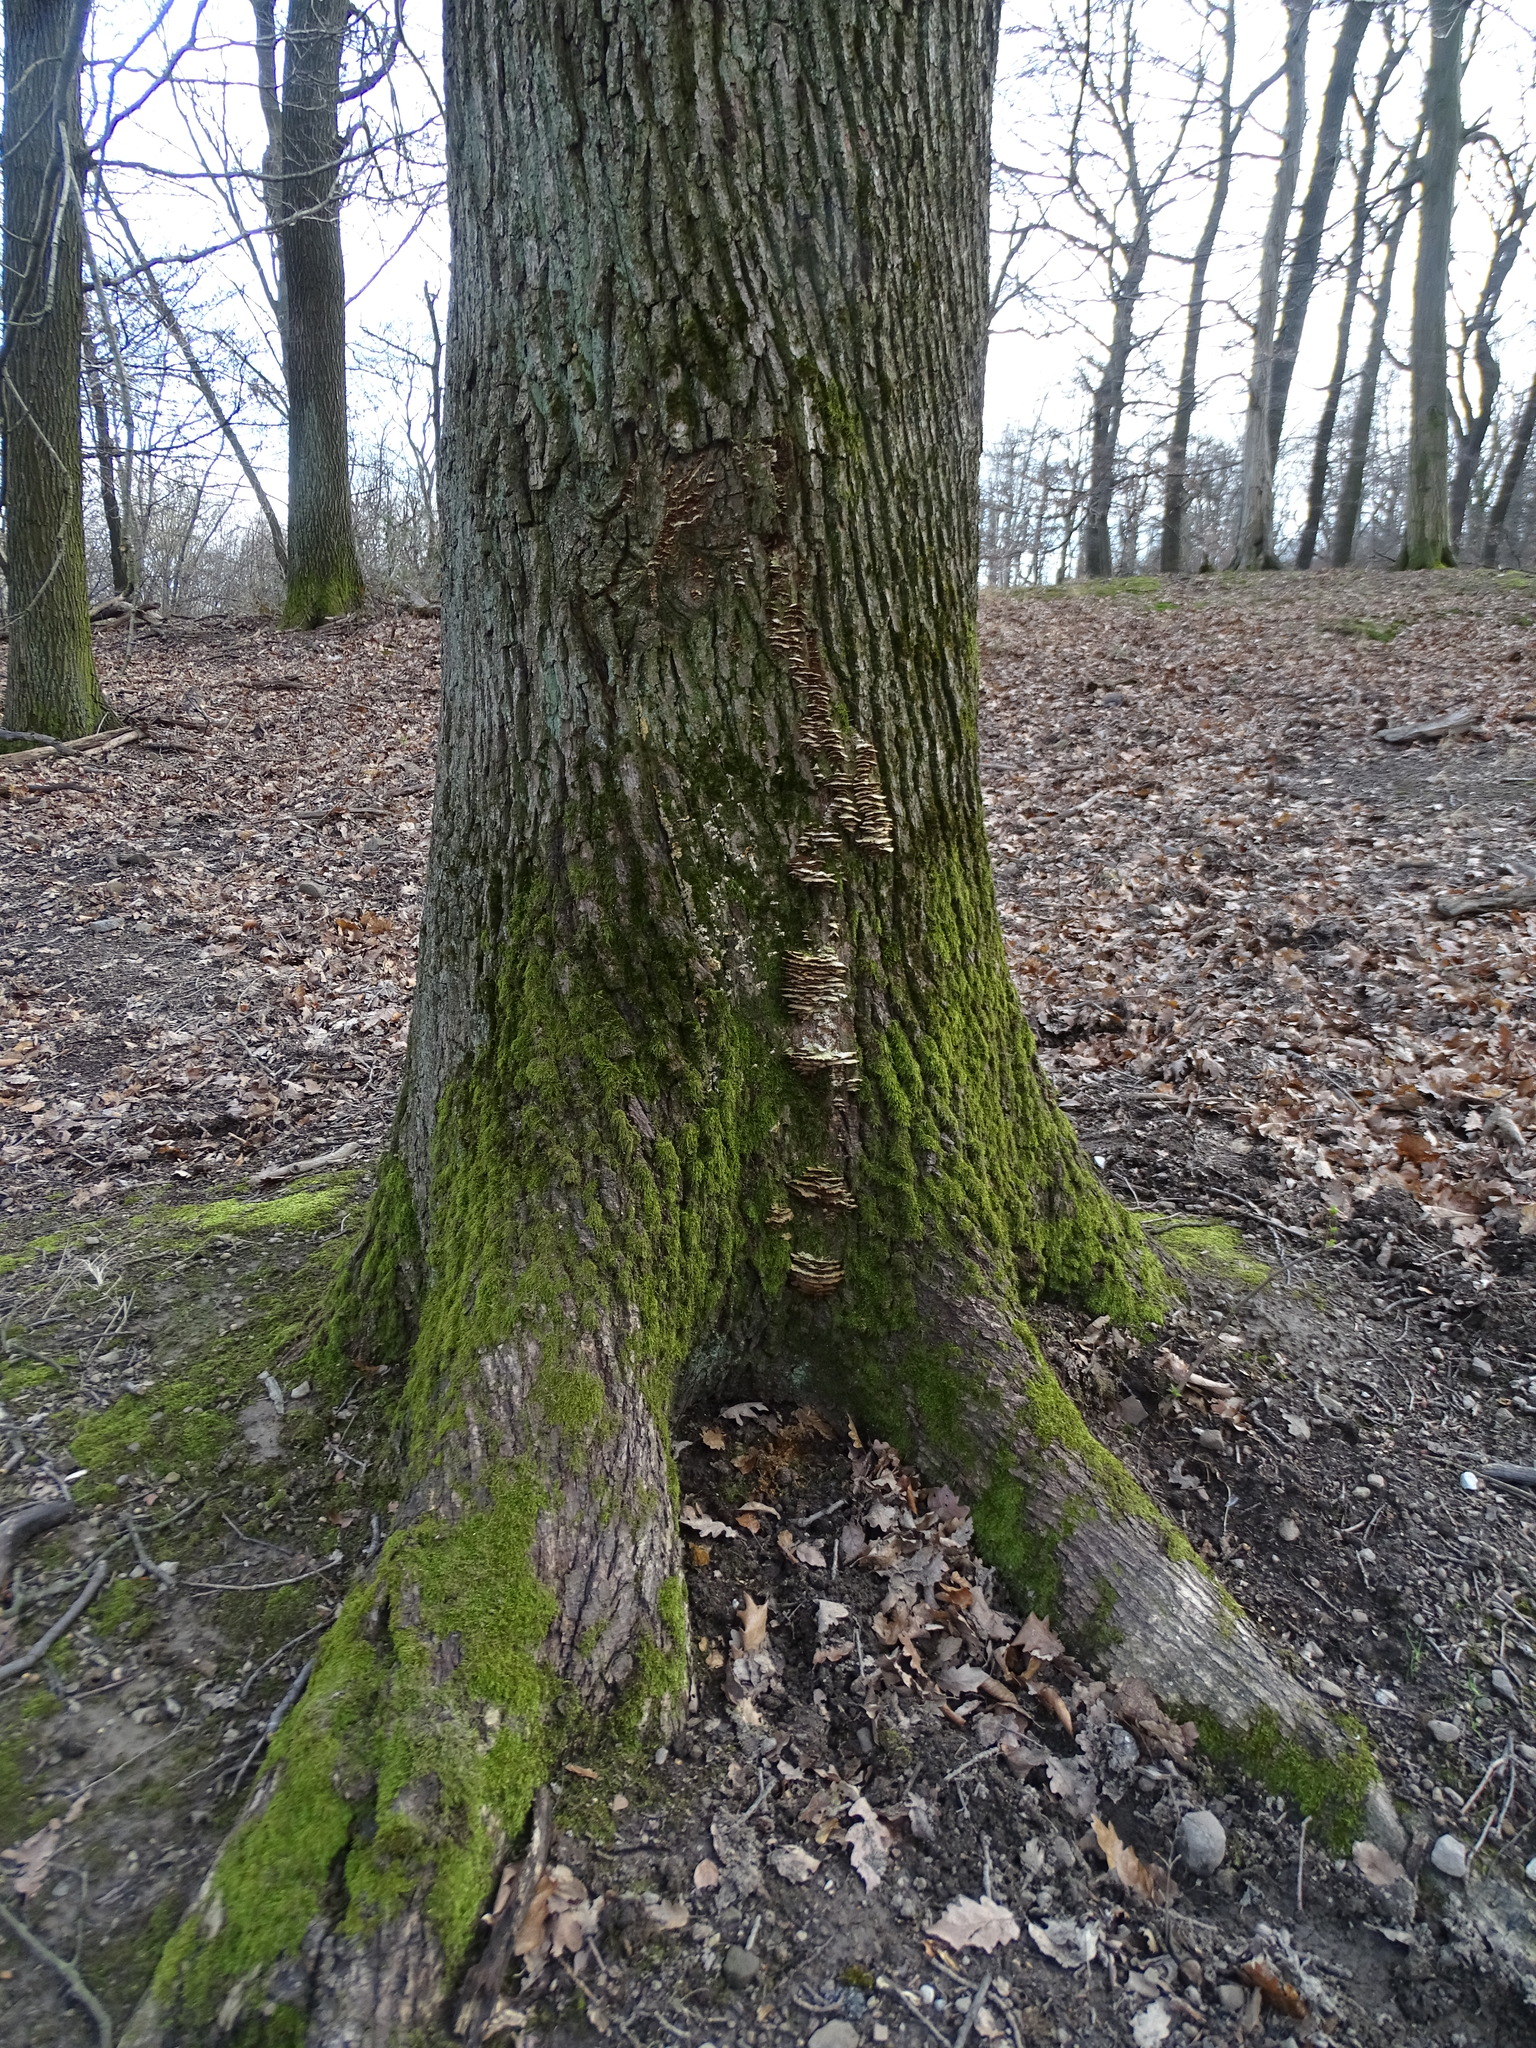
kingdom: Fungi
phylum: Basidiomycota
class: Agaricomycetes
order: Hymenochaetales
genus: Trichaptum
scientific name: Trichaptum biforme
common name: Violet-toothed polypore
